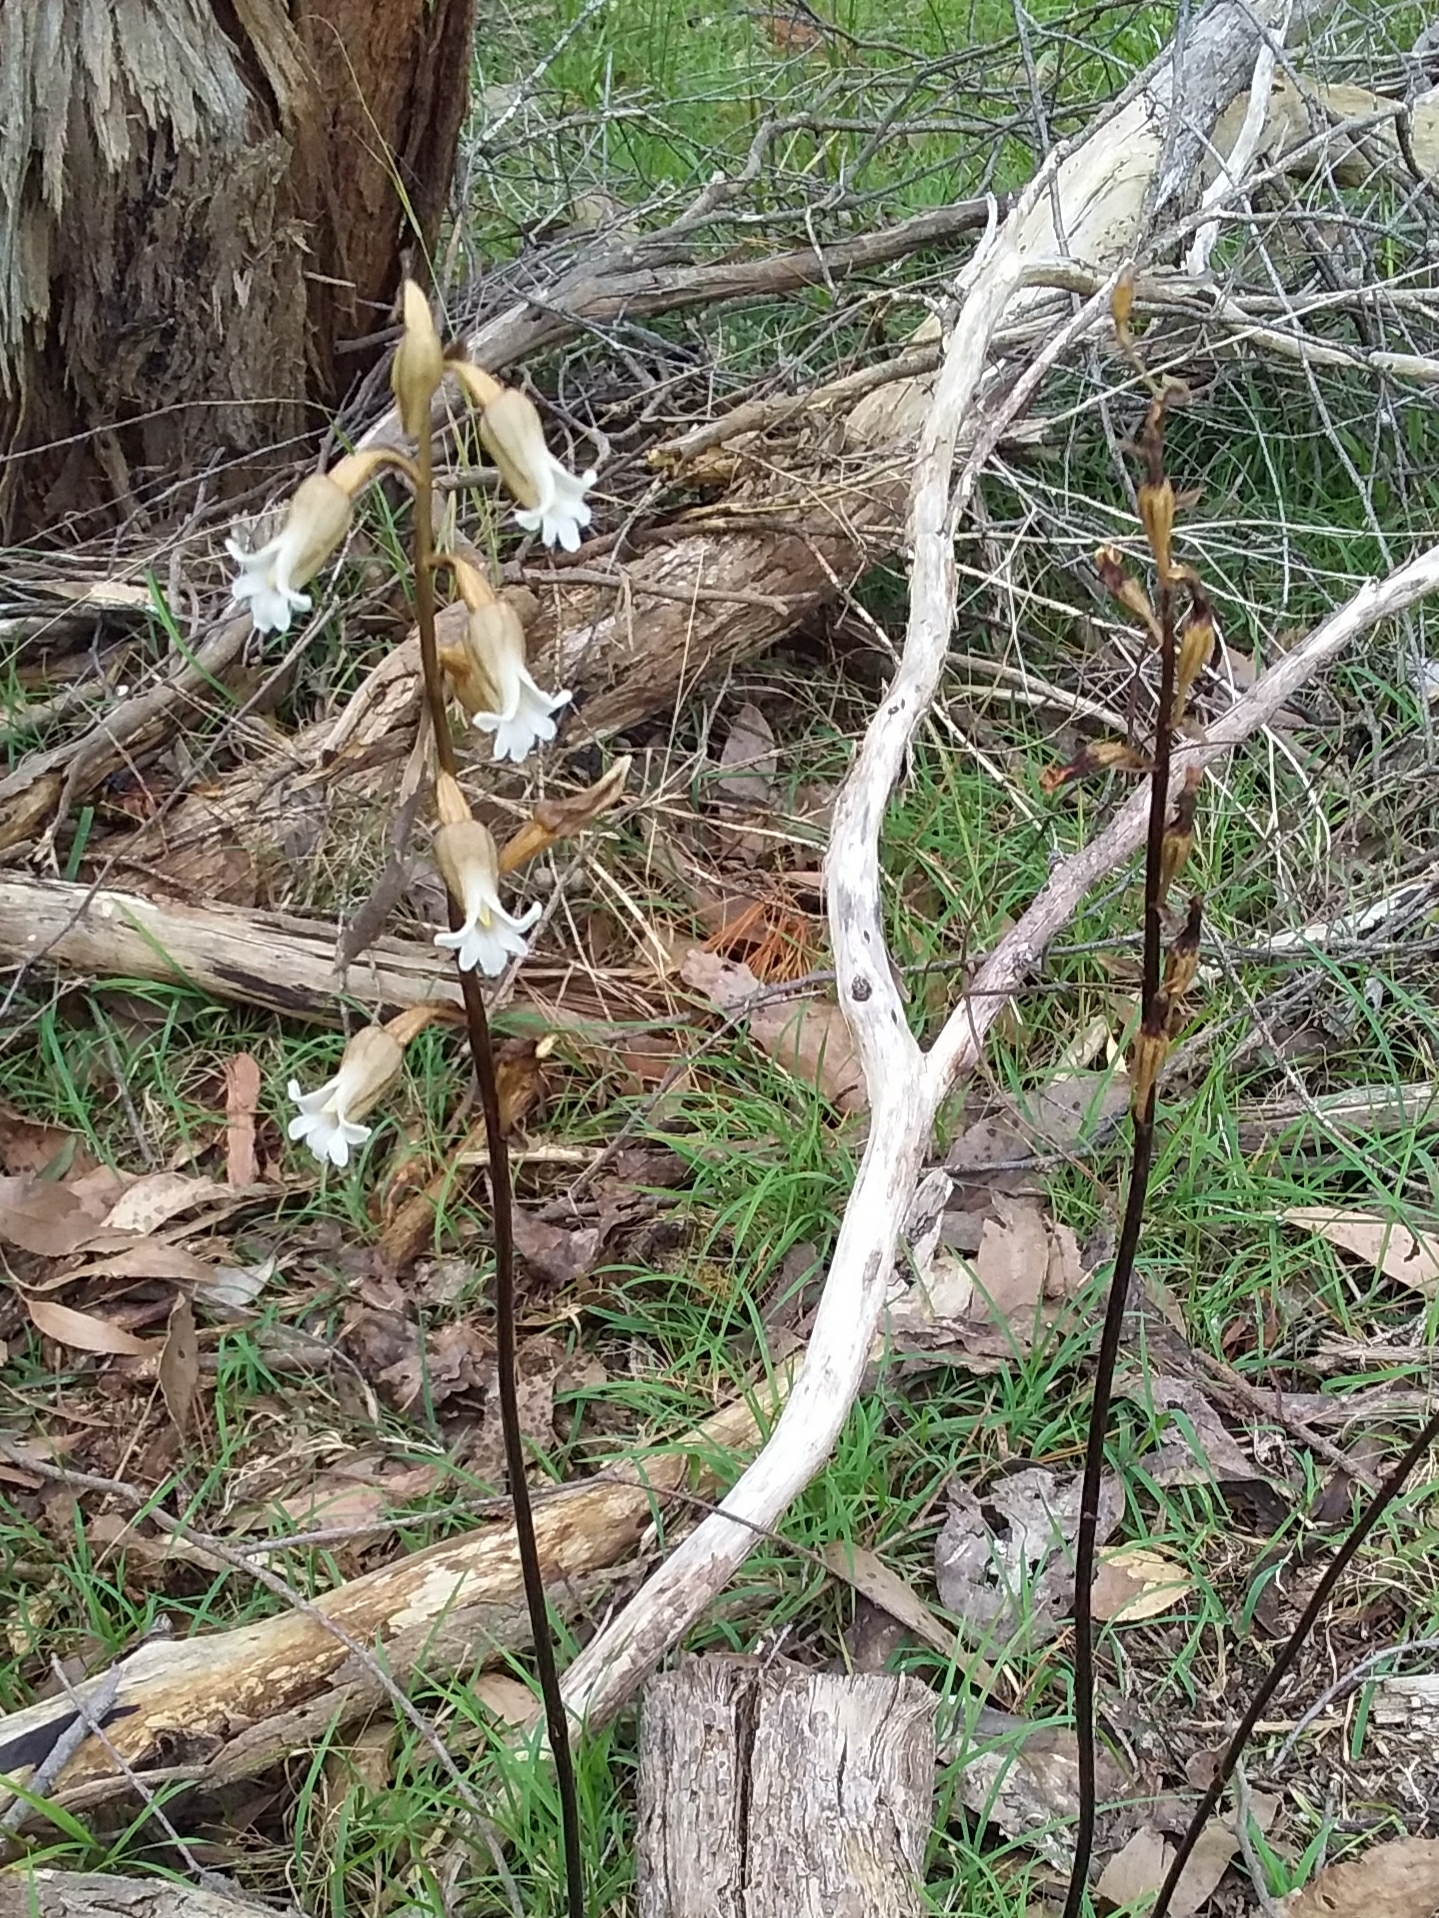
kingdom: Plantae
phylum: Tracheophyta
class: Liliopsida
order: Asparagales
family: Orchidaceae
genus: Gastrodia
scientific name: Gastrodia sesamoides
